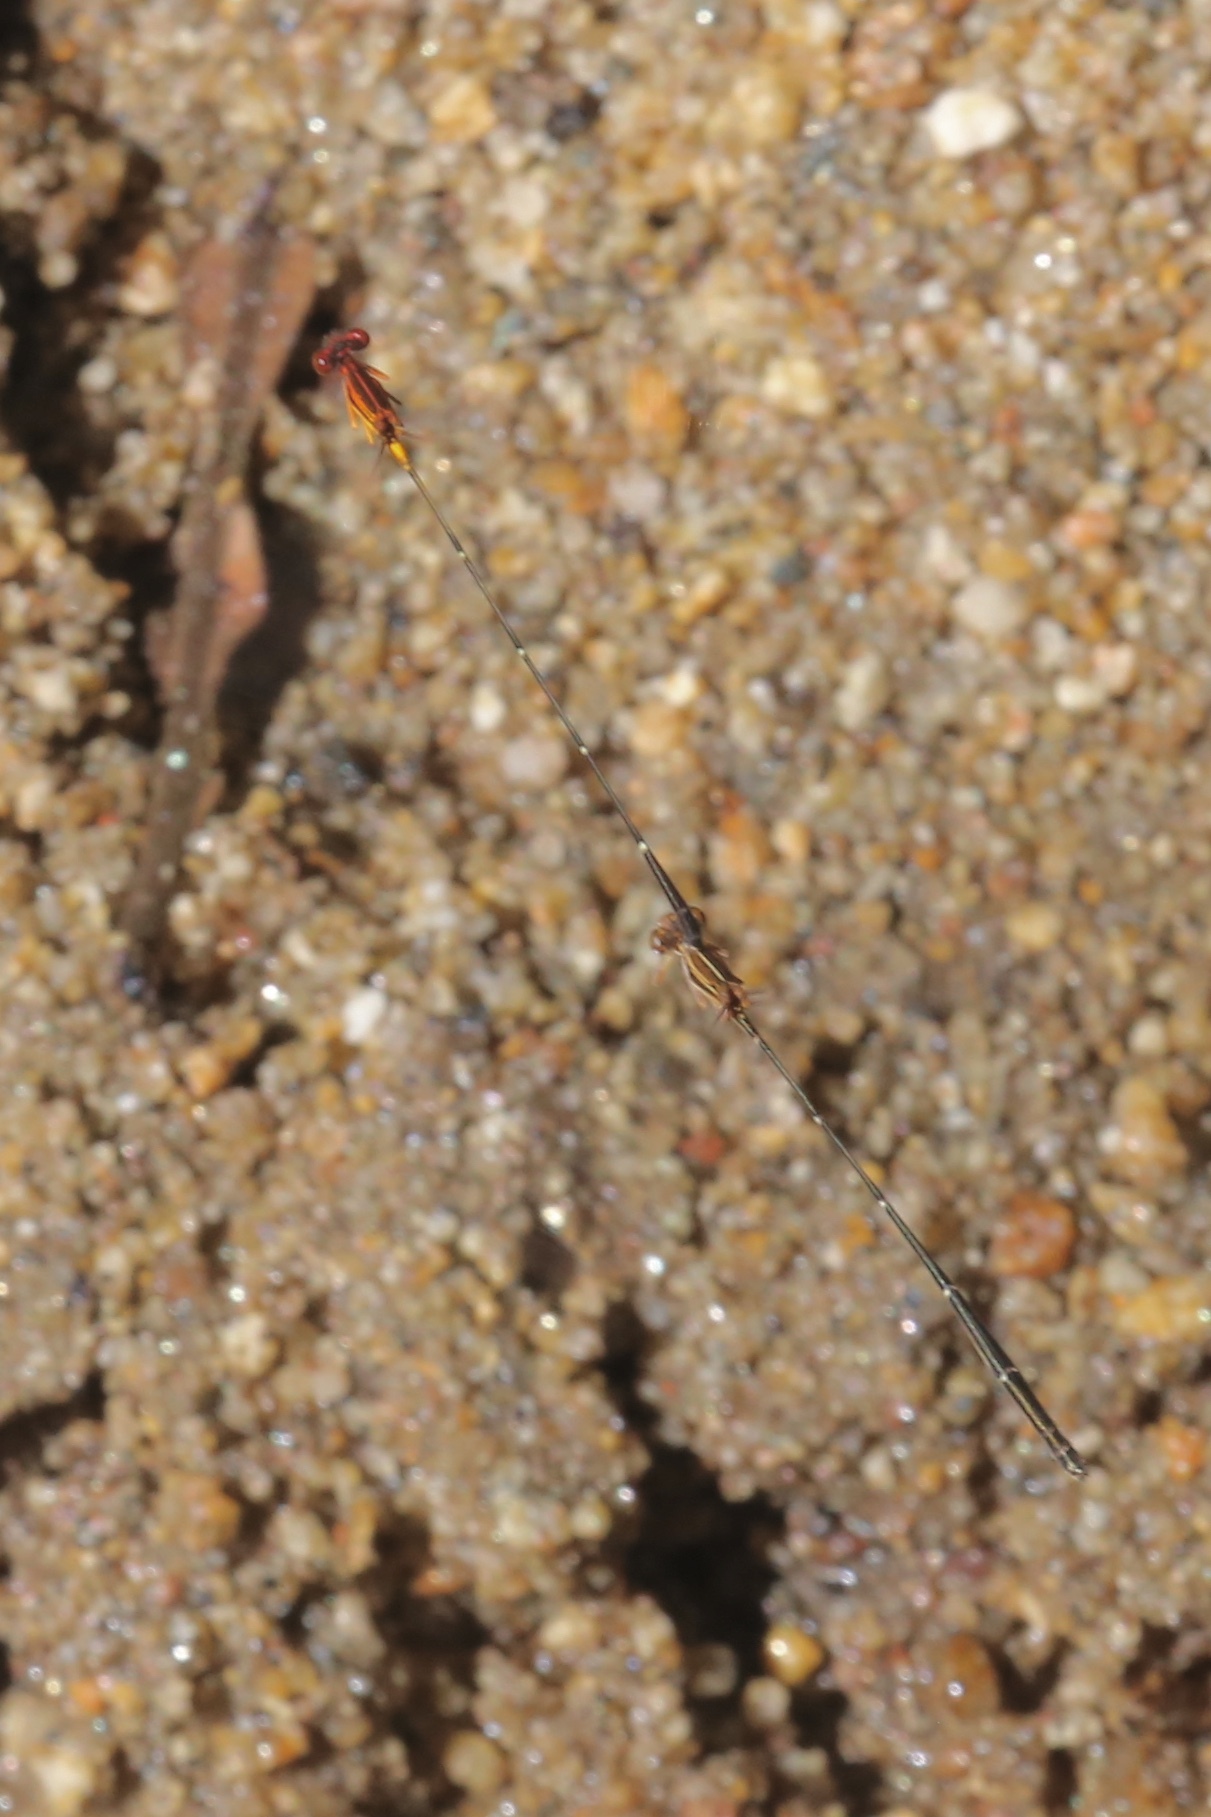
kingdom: Animalia
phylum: Arthropoda
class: Insecta
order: Odonata
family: Coenagrionidae
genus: Protoneura
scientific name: Protoneura cara
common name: Orange-striped threadtail
